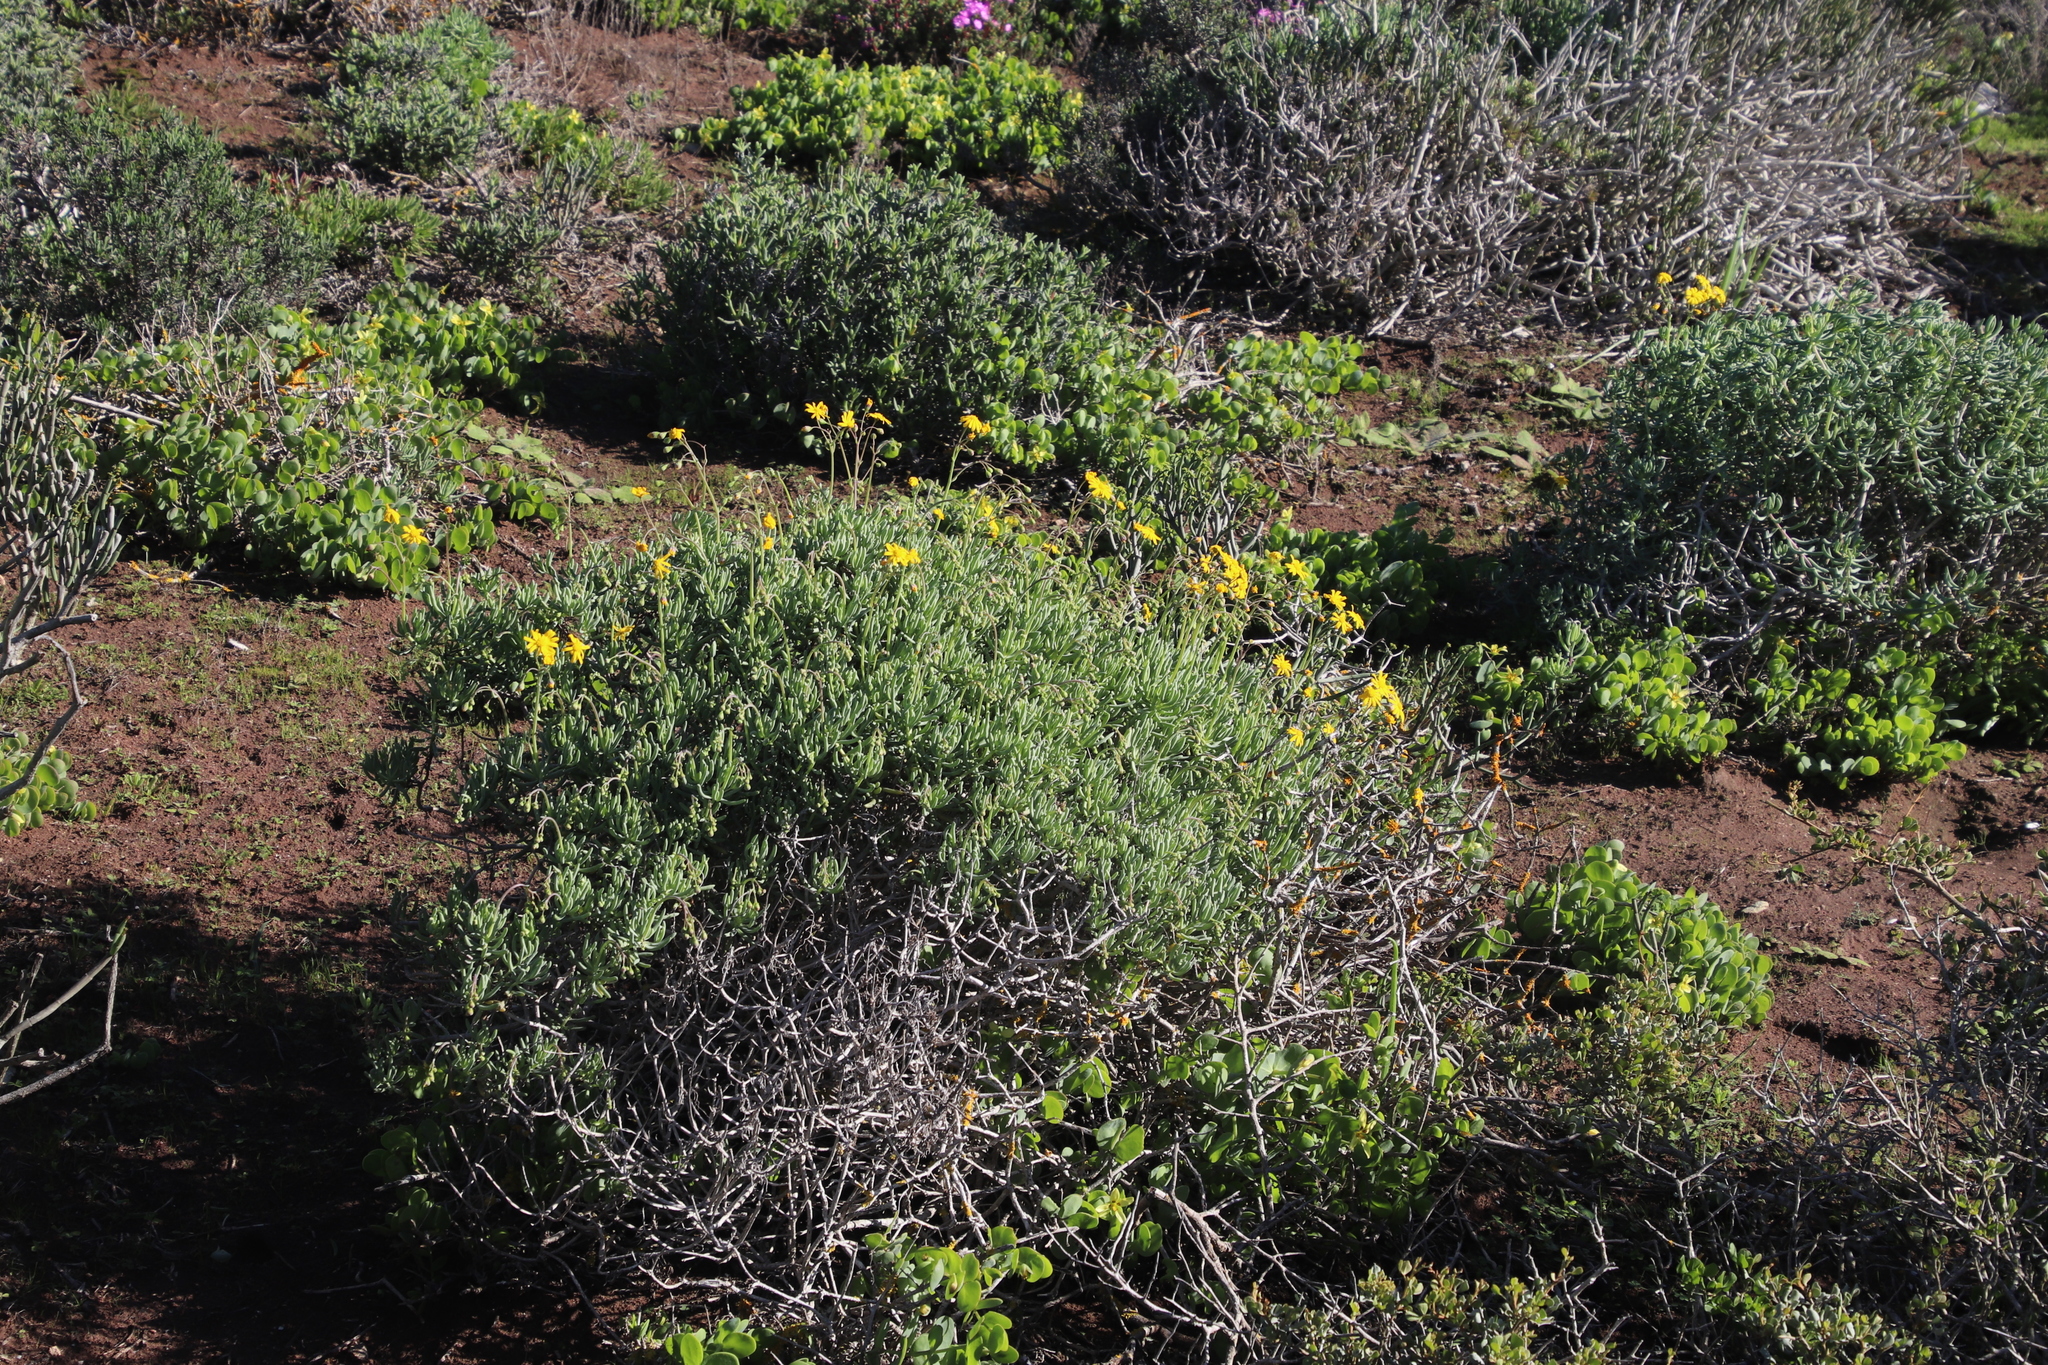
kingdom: Plantae
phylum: Tracheophyta
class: Magnoliopsida
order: Asterales
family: Asteraceae
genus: Crassothonna
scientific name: Crassothonna cylindrica
